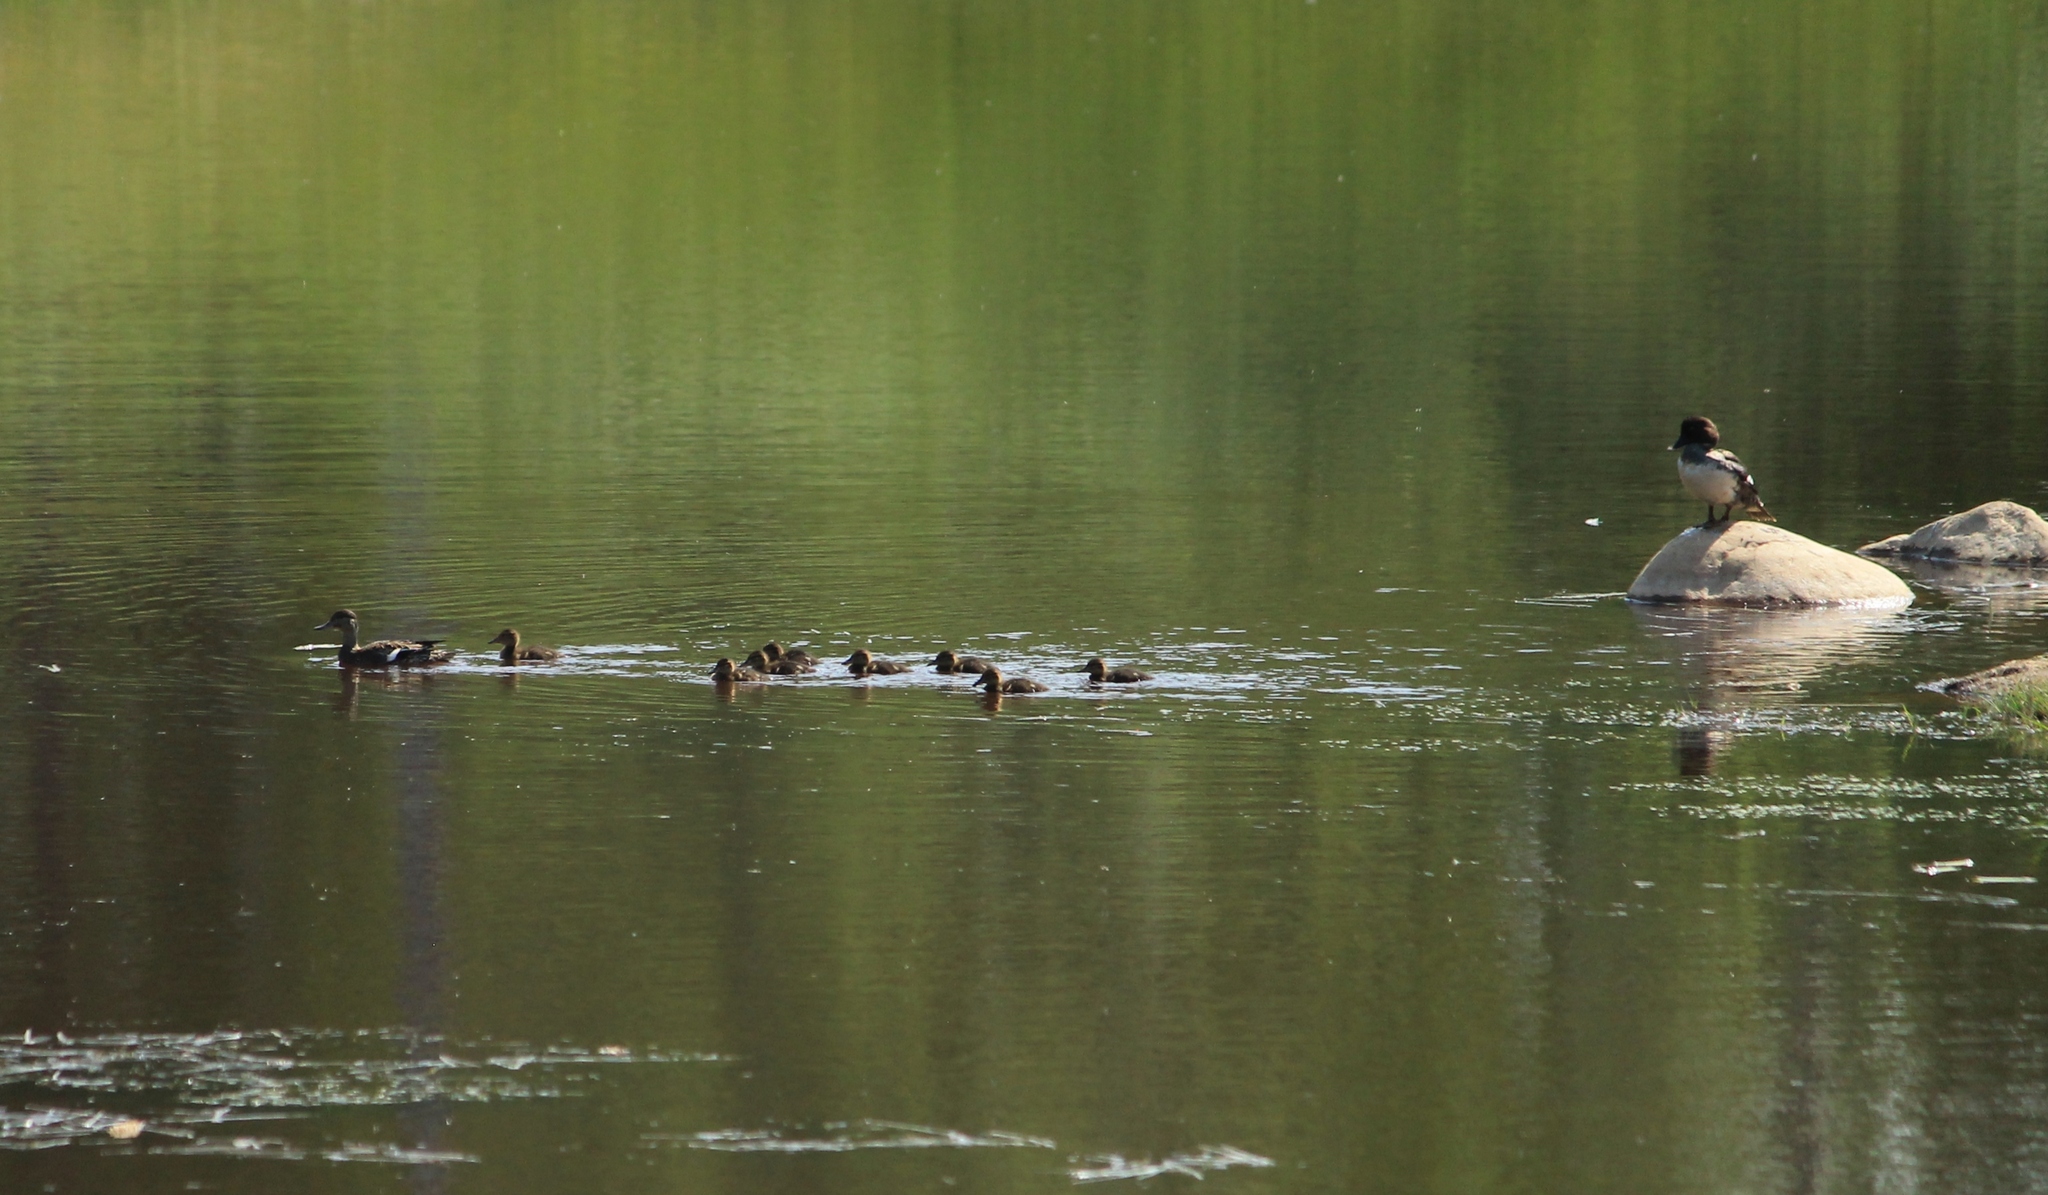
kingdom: Animalia
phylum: Chordata
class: Aves
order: Anseriformes
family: Anatidae
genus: Anas
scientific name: Anas platyrhynchos
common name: Mallard
